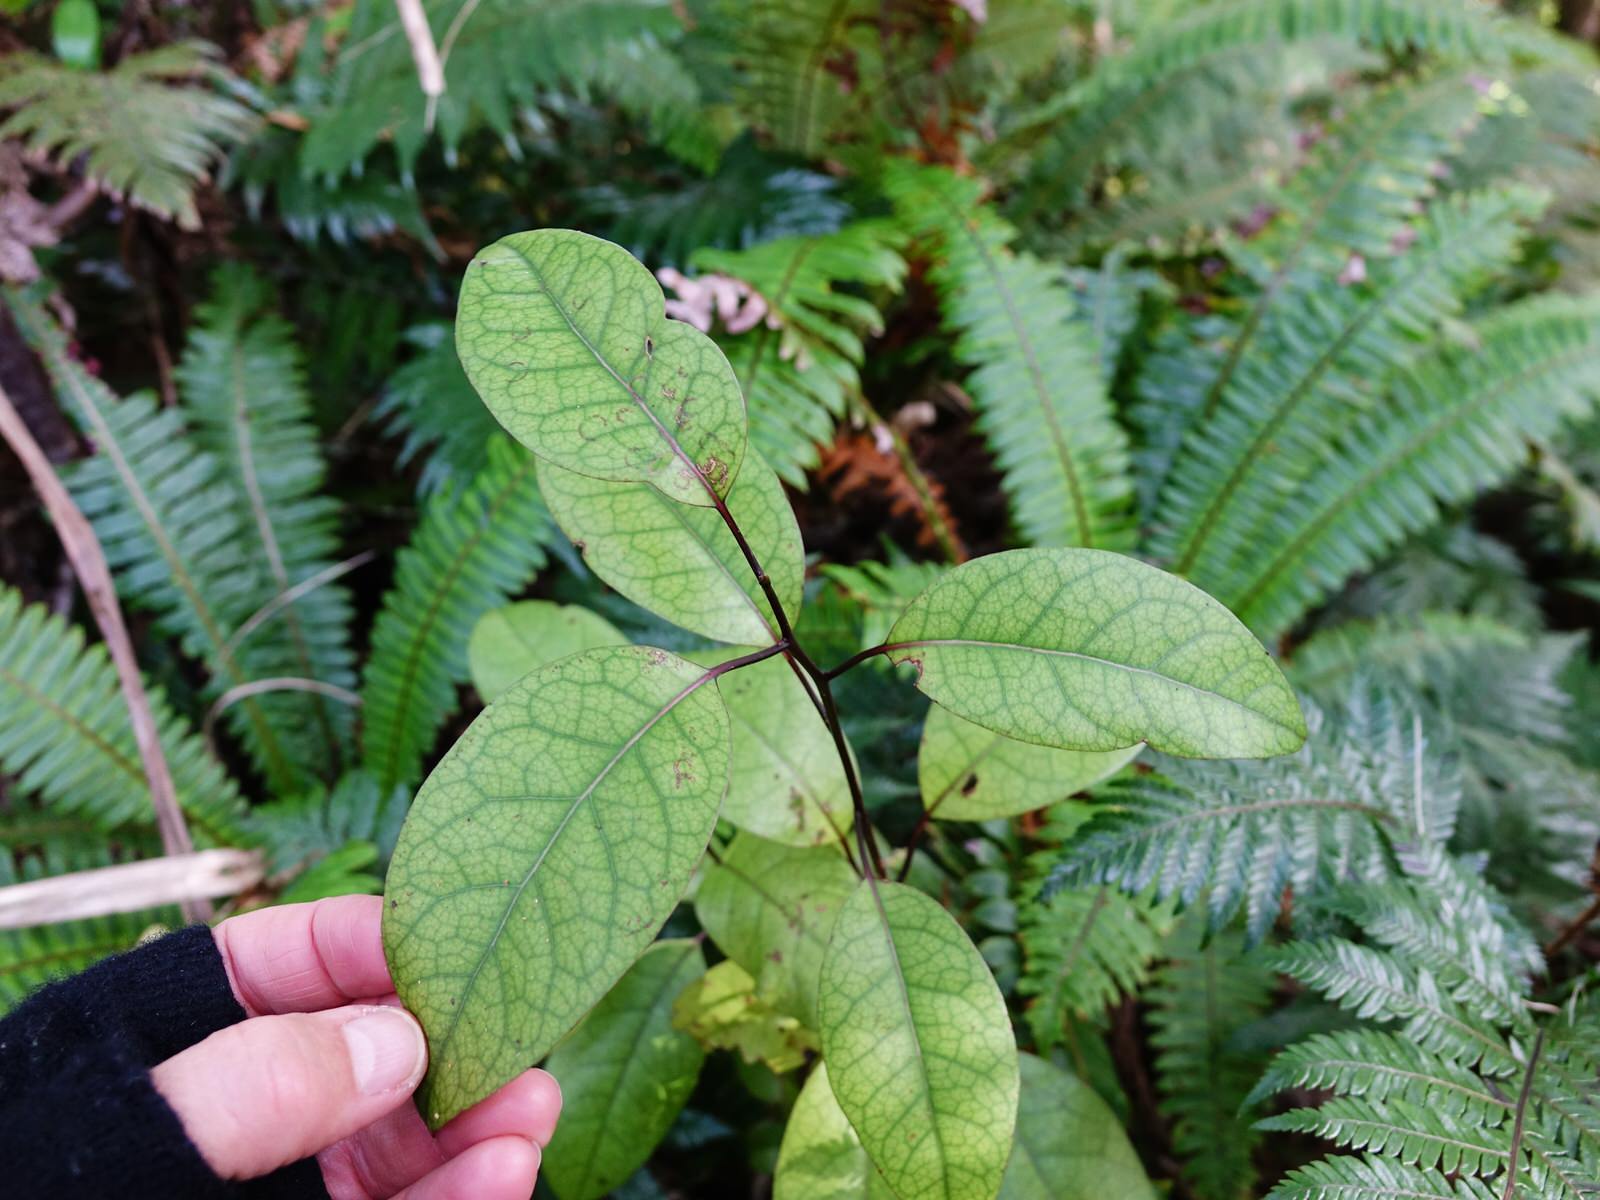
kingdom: Plantae
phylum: Tracheophyta
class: Magnoliopsida
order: Laurales
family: Lauraceae
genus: Litsea
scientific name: Litsea calicaris
